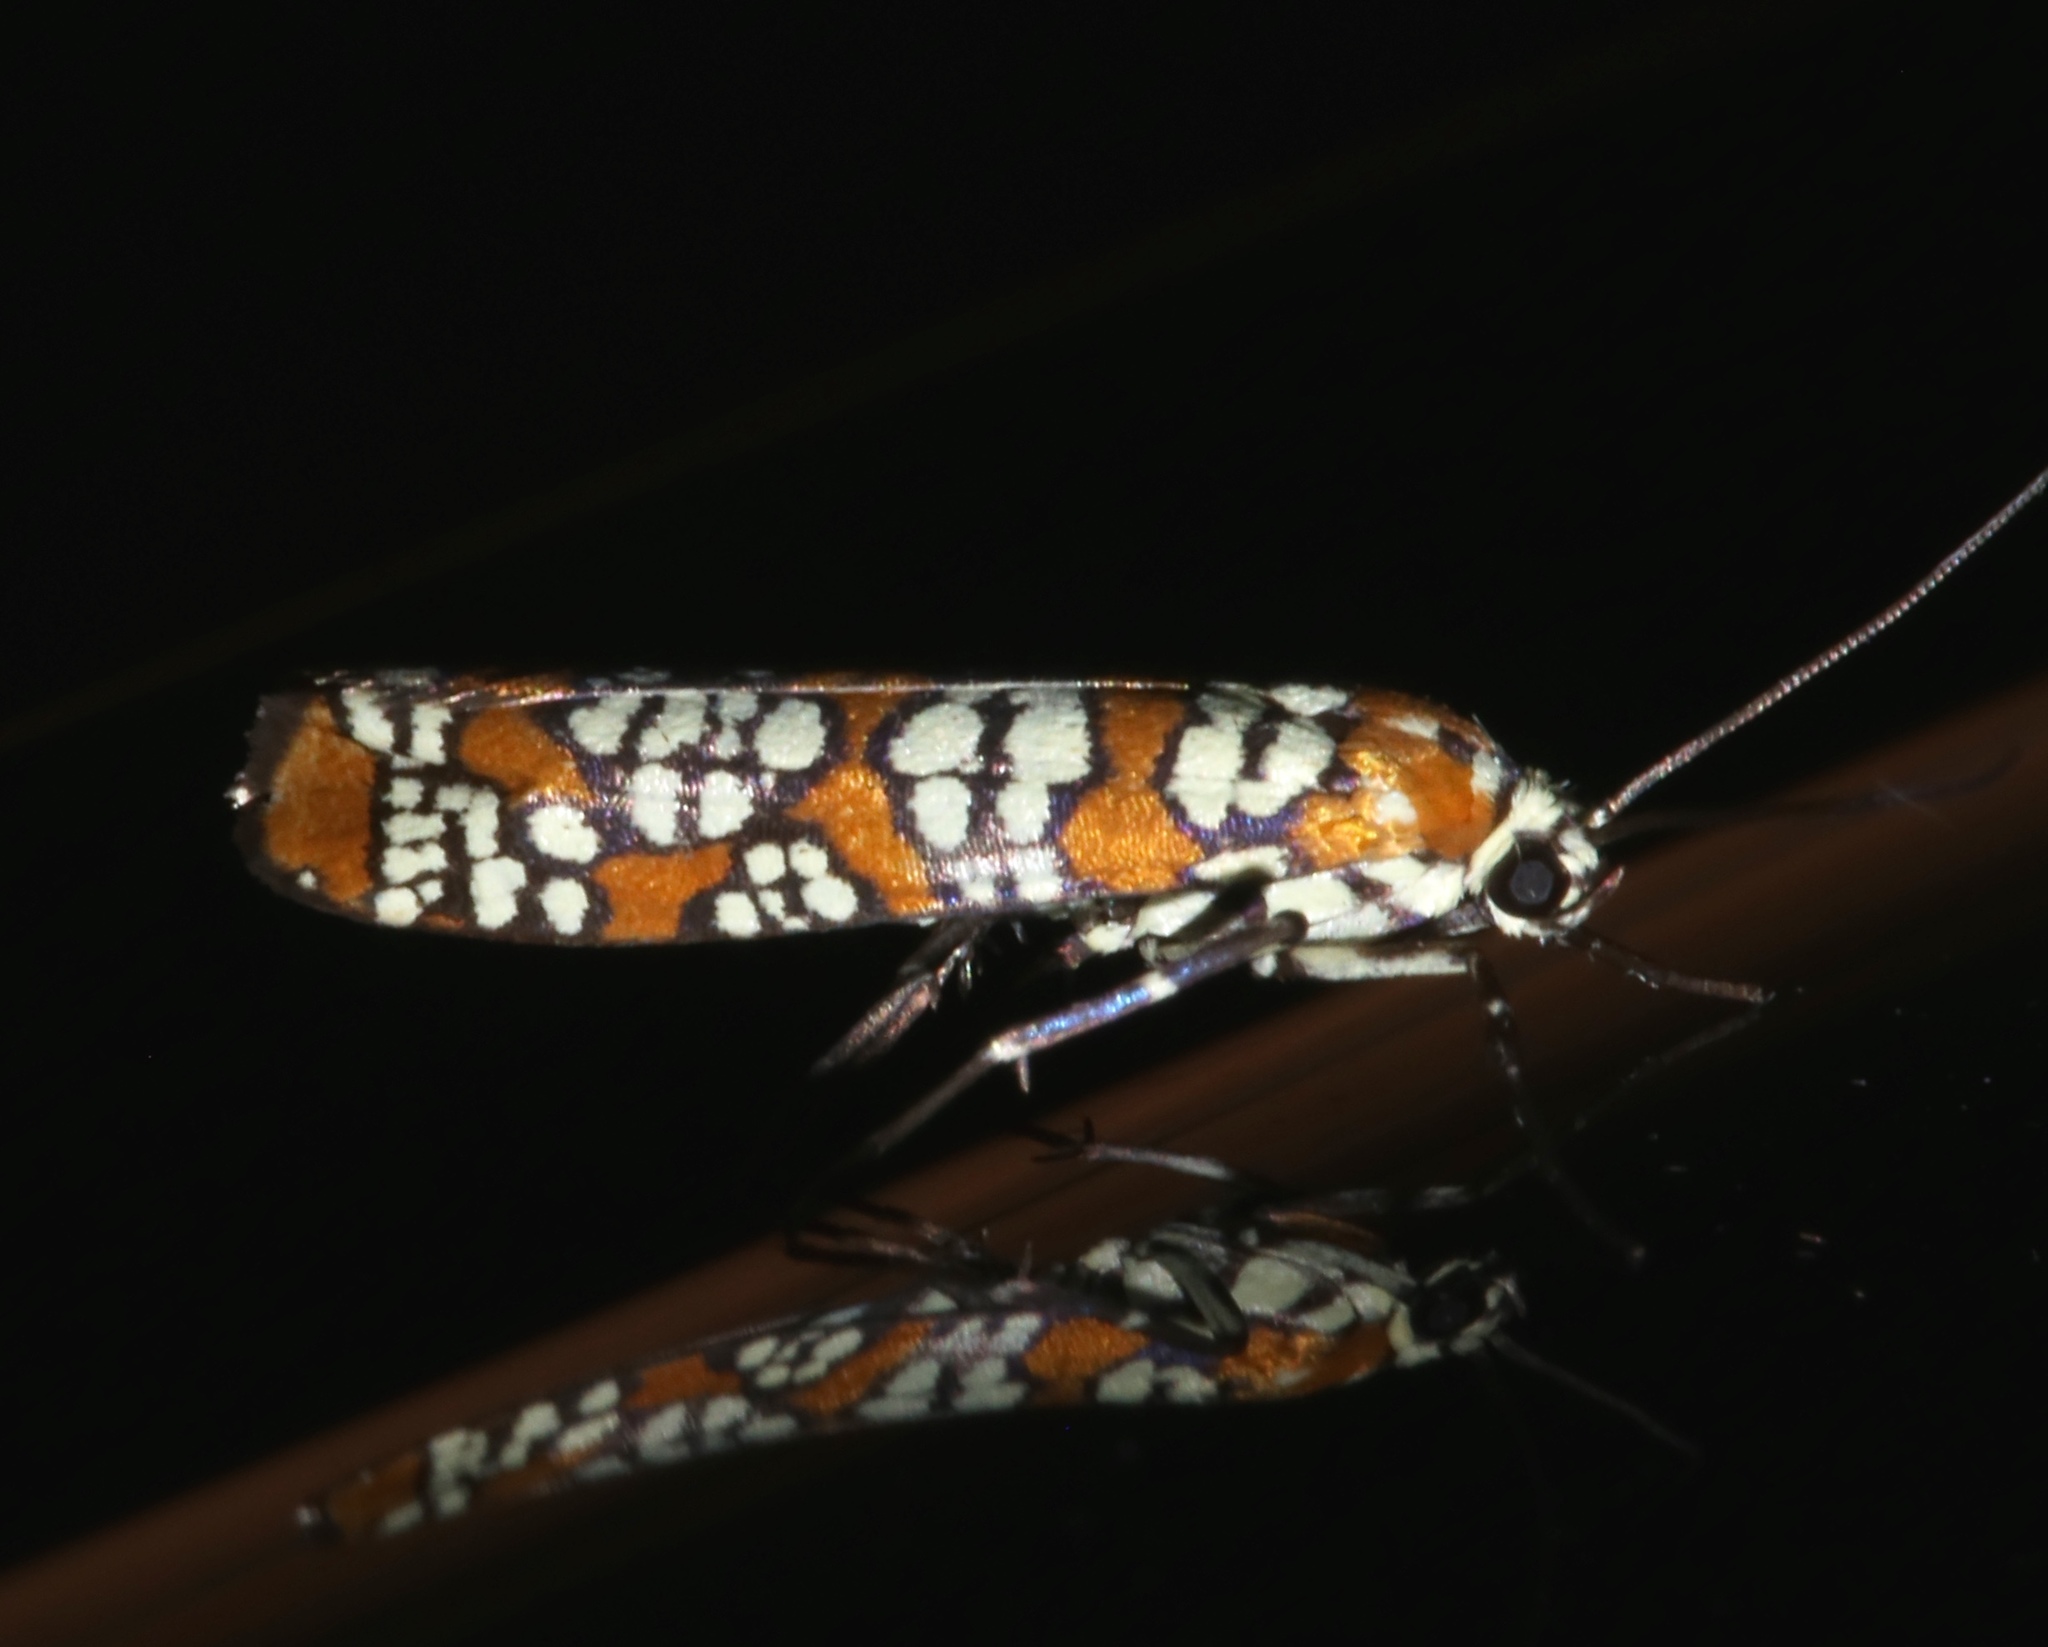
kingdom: Animalia
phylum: Arthropoda
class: Insecta
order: Lepidoptera
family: Attevidae
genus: Atteva
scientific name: Atteva punctella
